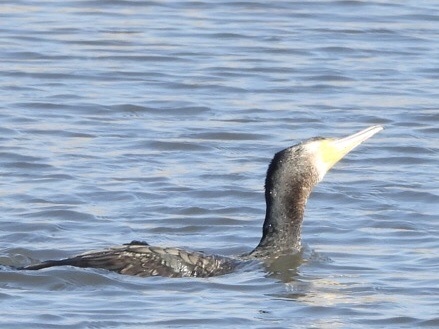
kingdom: Animalia
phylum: Chordata
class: Aves
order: Suliformes
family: Phalacrocoracidae
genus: Phalacrocorax
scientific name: Phalacrocorax carbo
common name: Great cormorant
